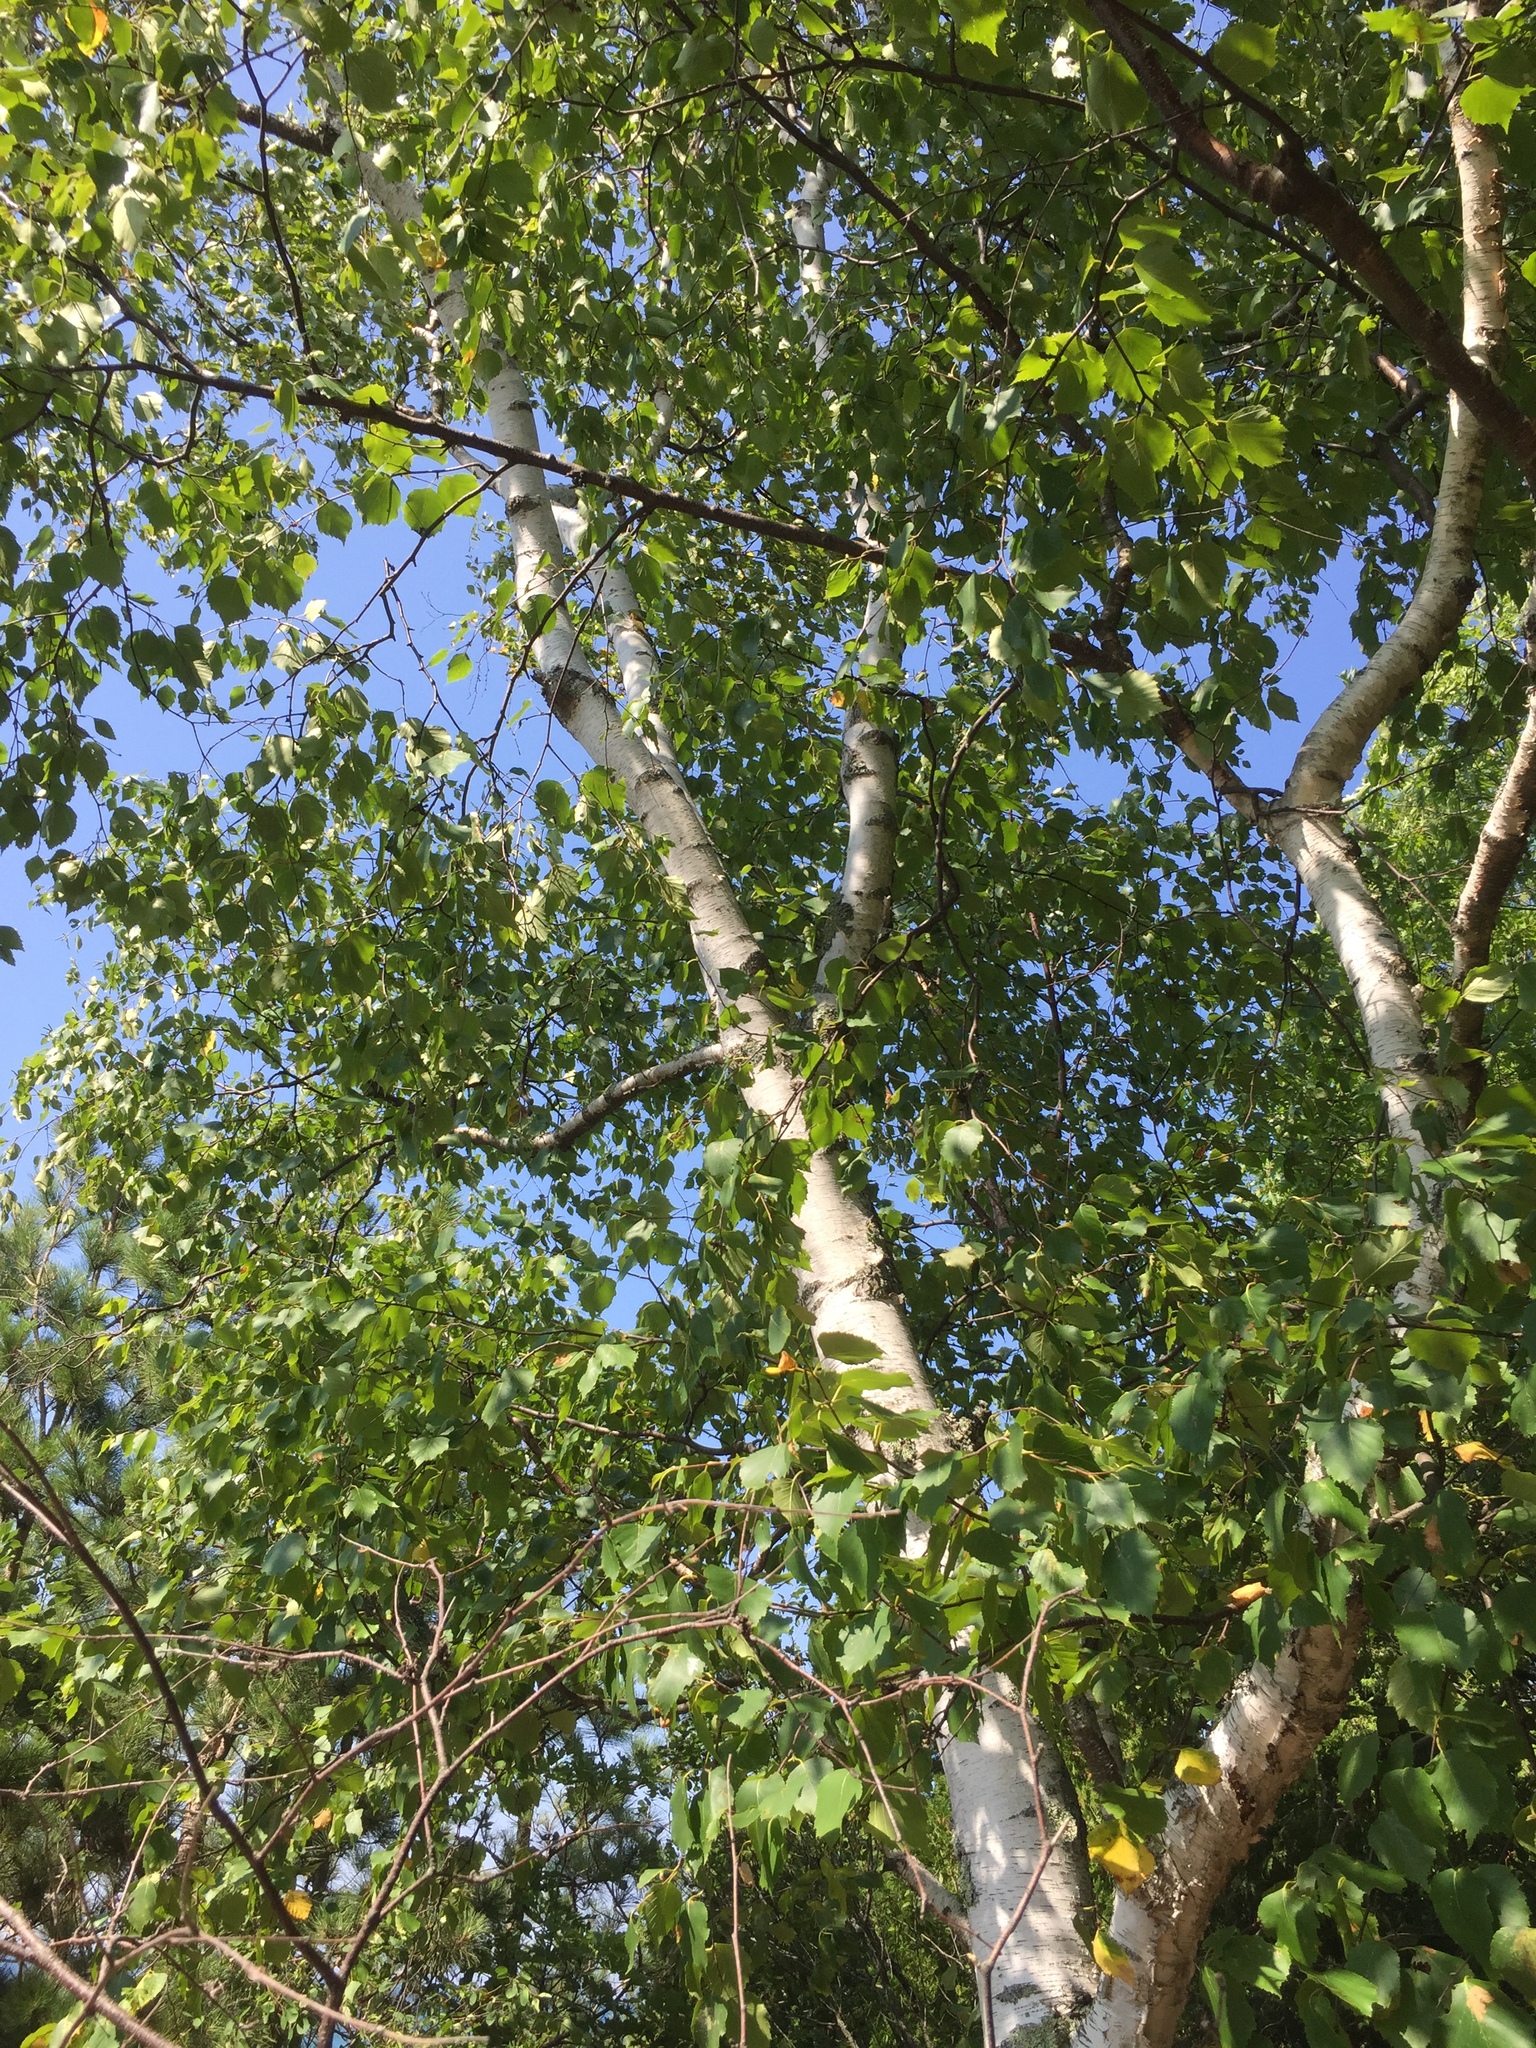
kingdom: Plantae
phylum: Tracheophyta
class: Magnoliopsida
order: Fagales
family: Betulaceae
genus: Betula
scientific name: Betula papyrifera
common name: Paper birch
